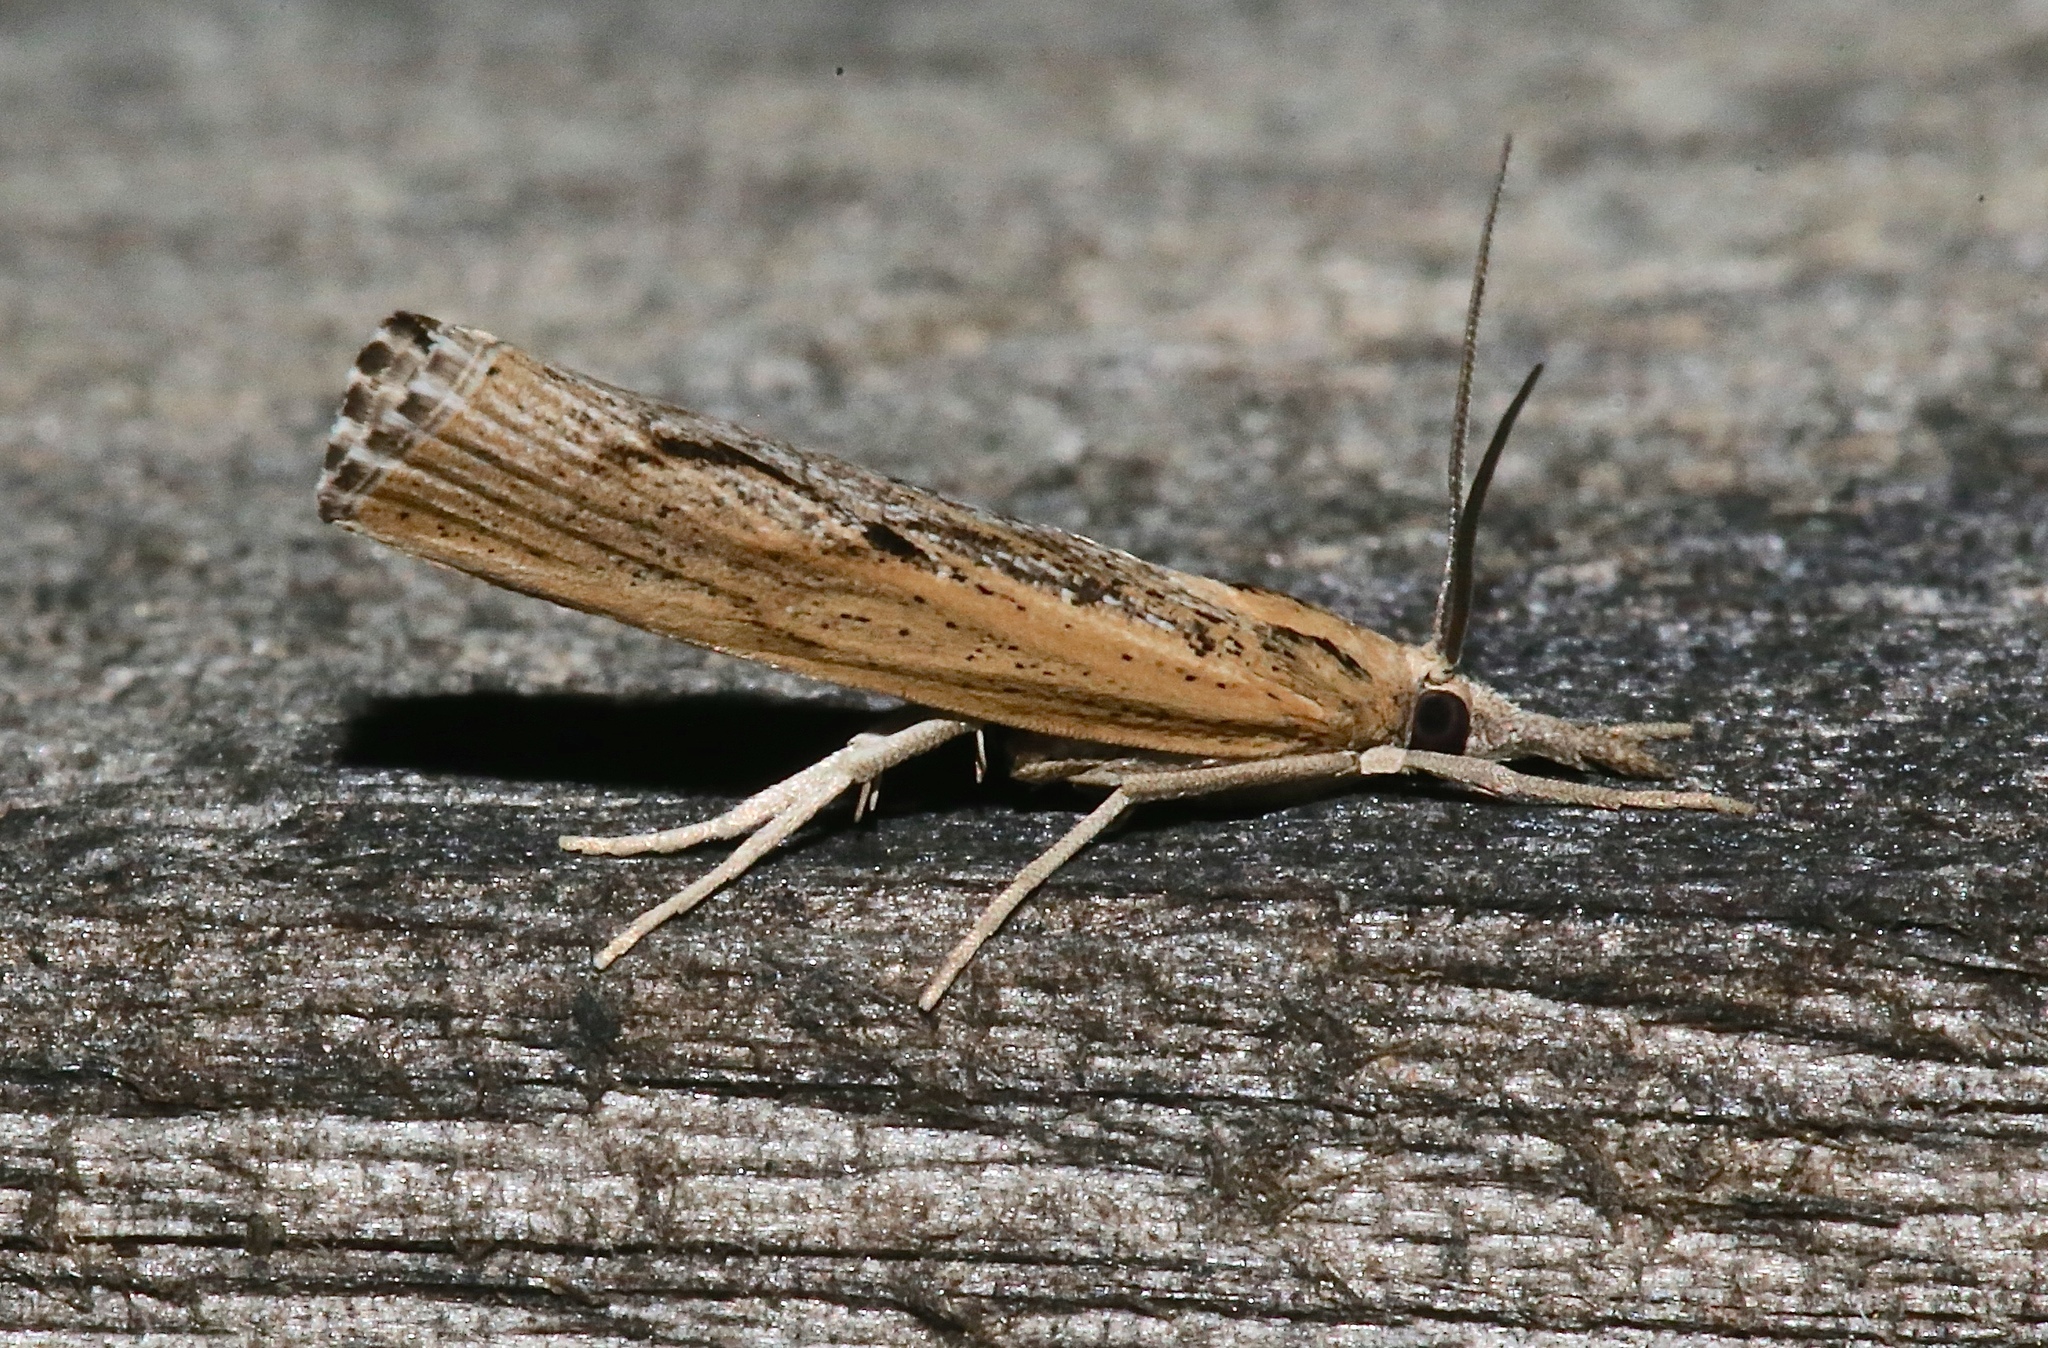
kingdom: Animalia
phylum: Arthropoda
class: Insecta
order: Lepidoptera
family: Crambidae
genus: Pediasia
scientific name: Pediasia trisecta
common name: Sod webworm moth
